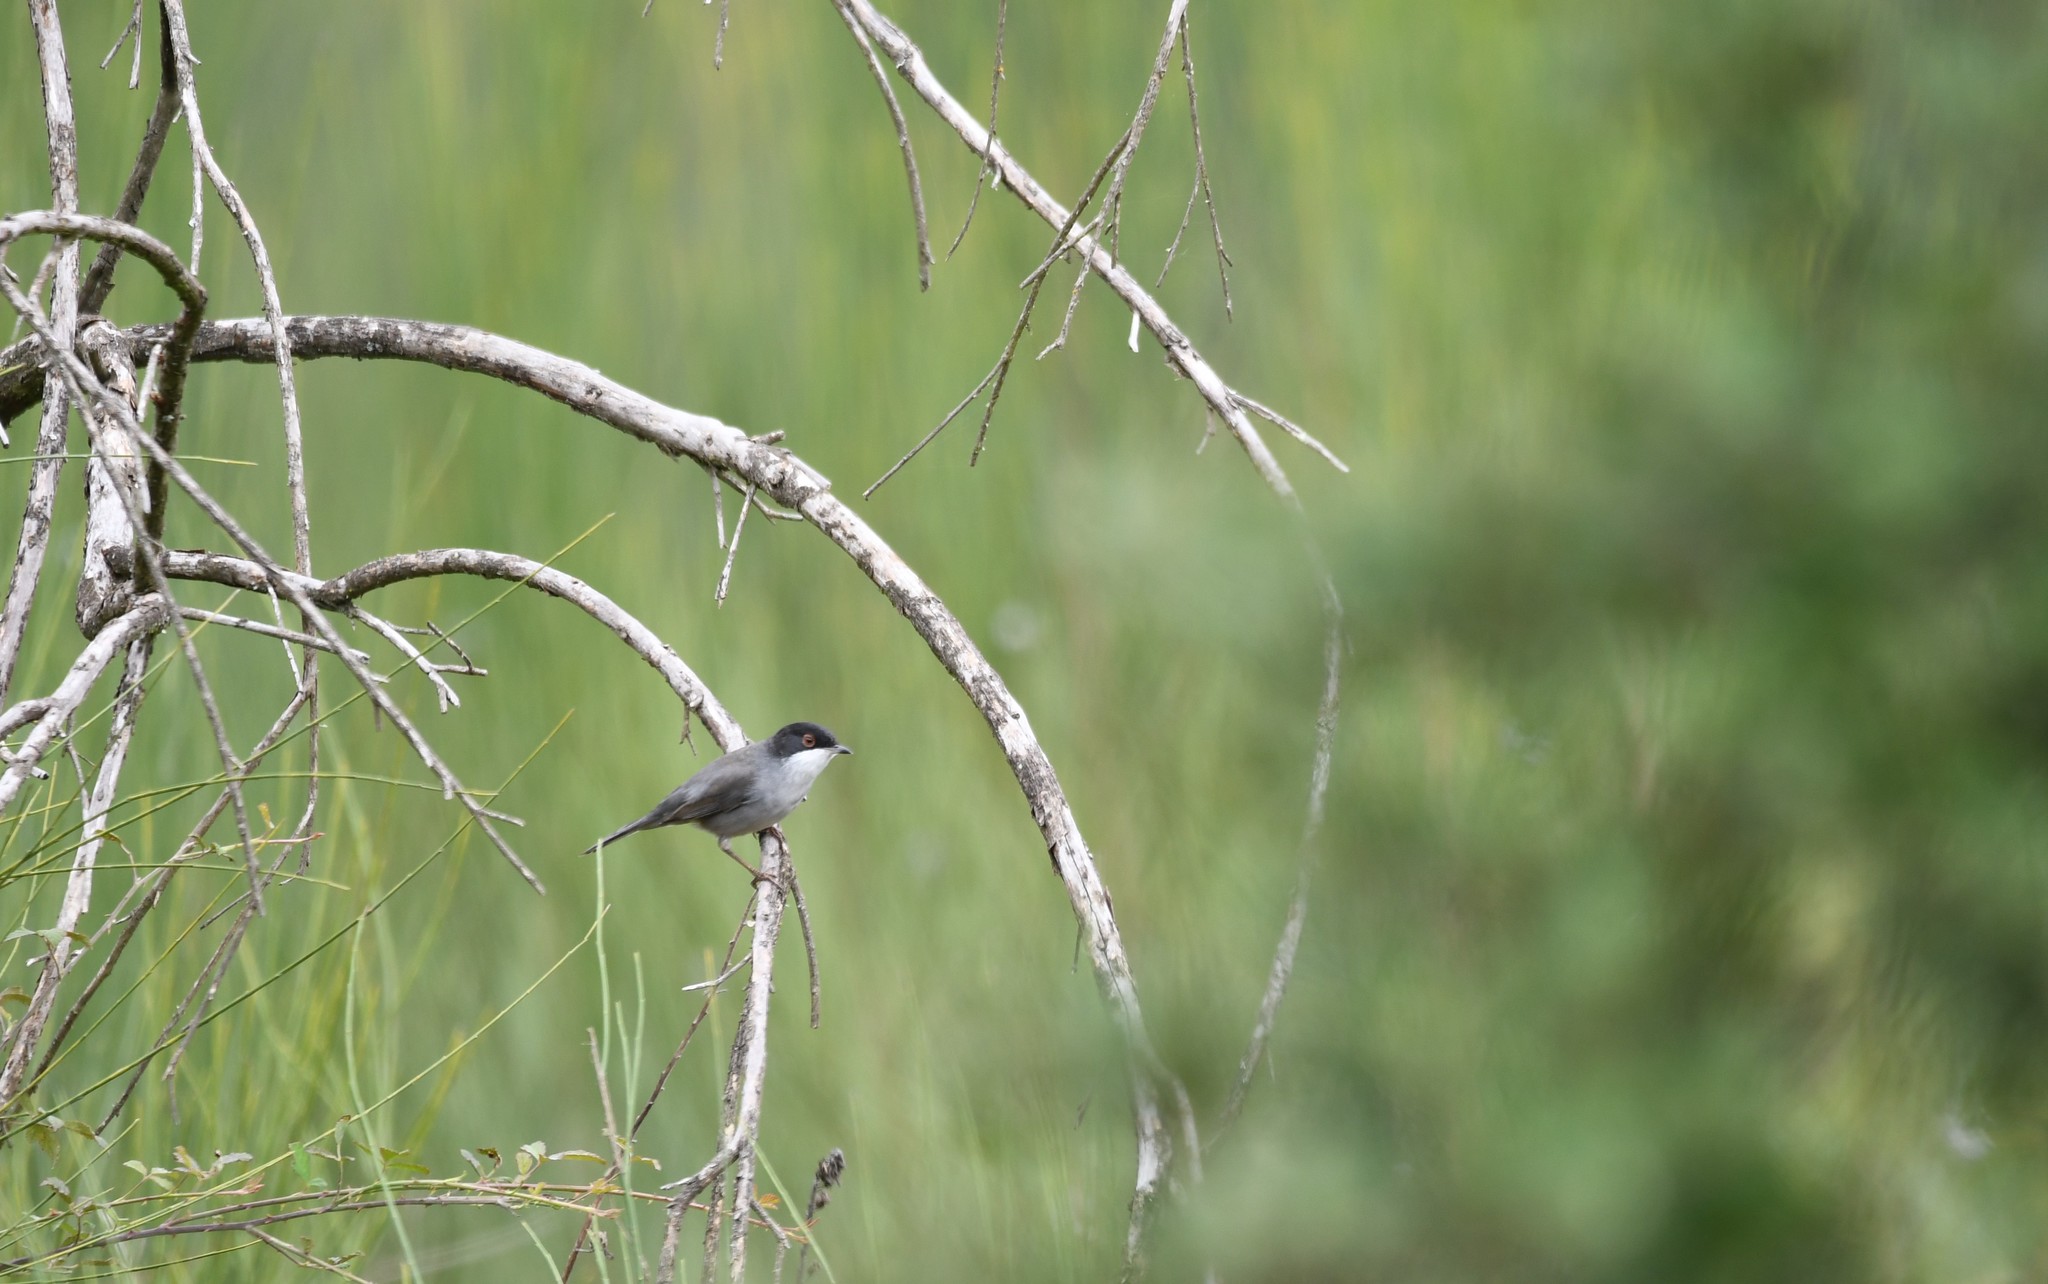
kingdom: Animalia
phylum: Chordata
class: Aves
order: Passeriformes
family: Sylviidae
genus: Curruca
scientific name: Curruca melanocephala
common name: Sardinian warbler
